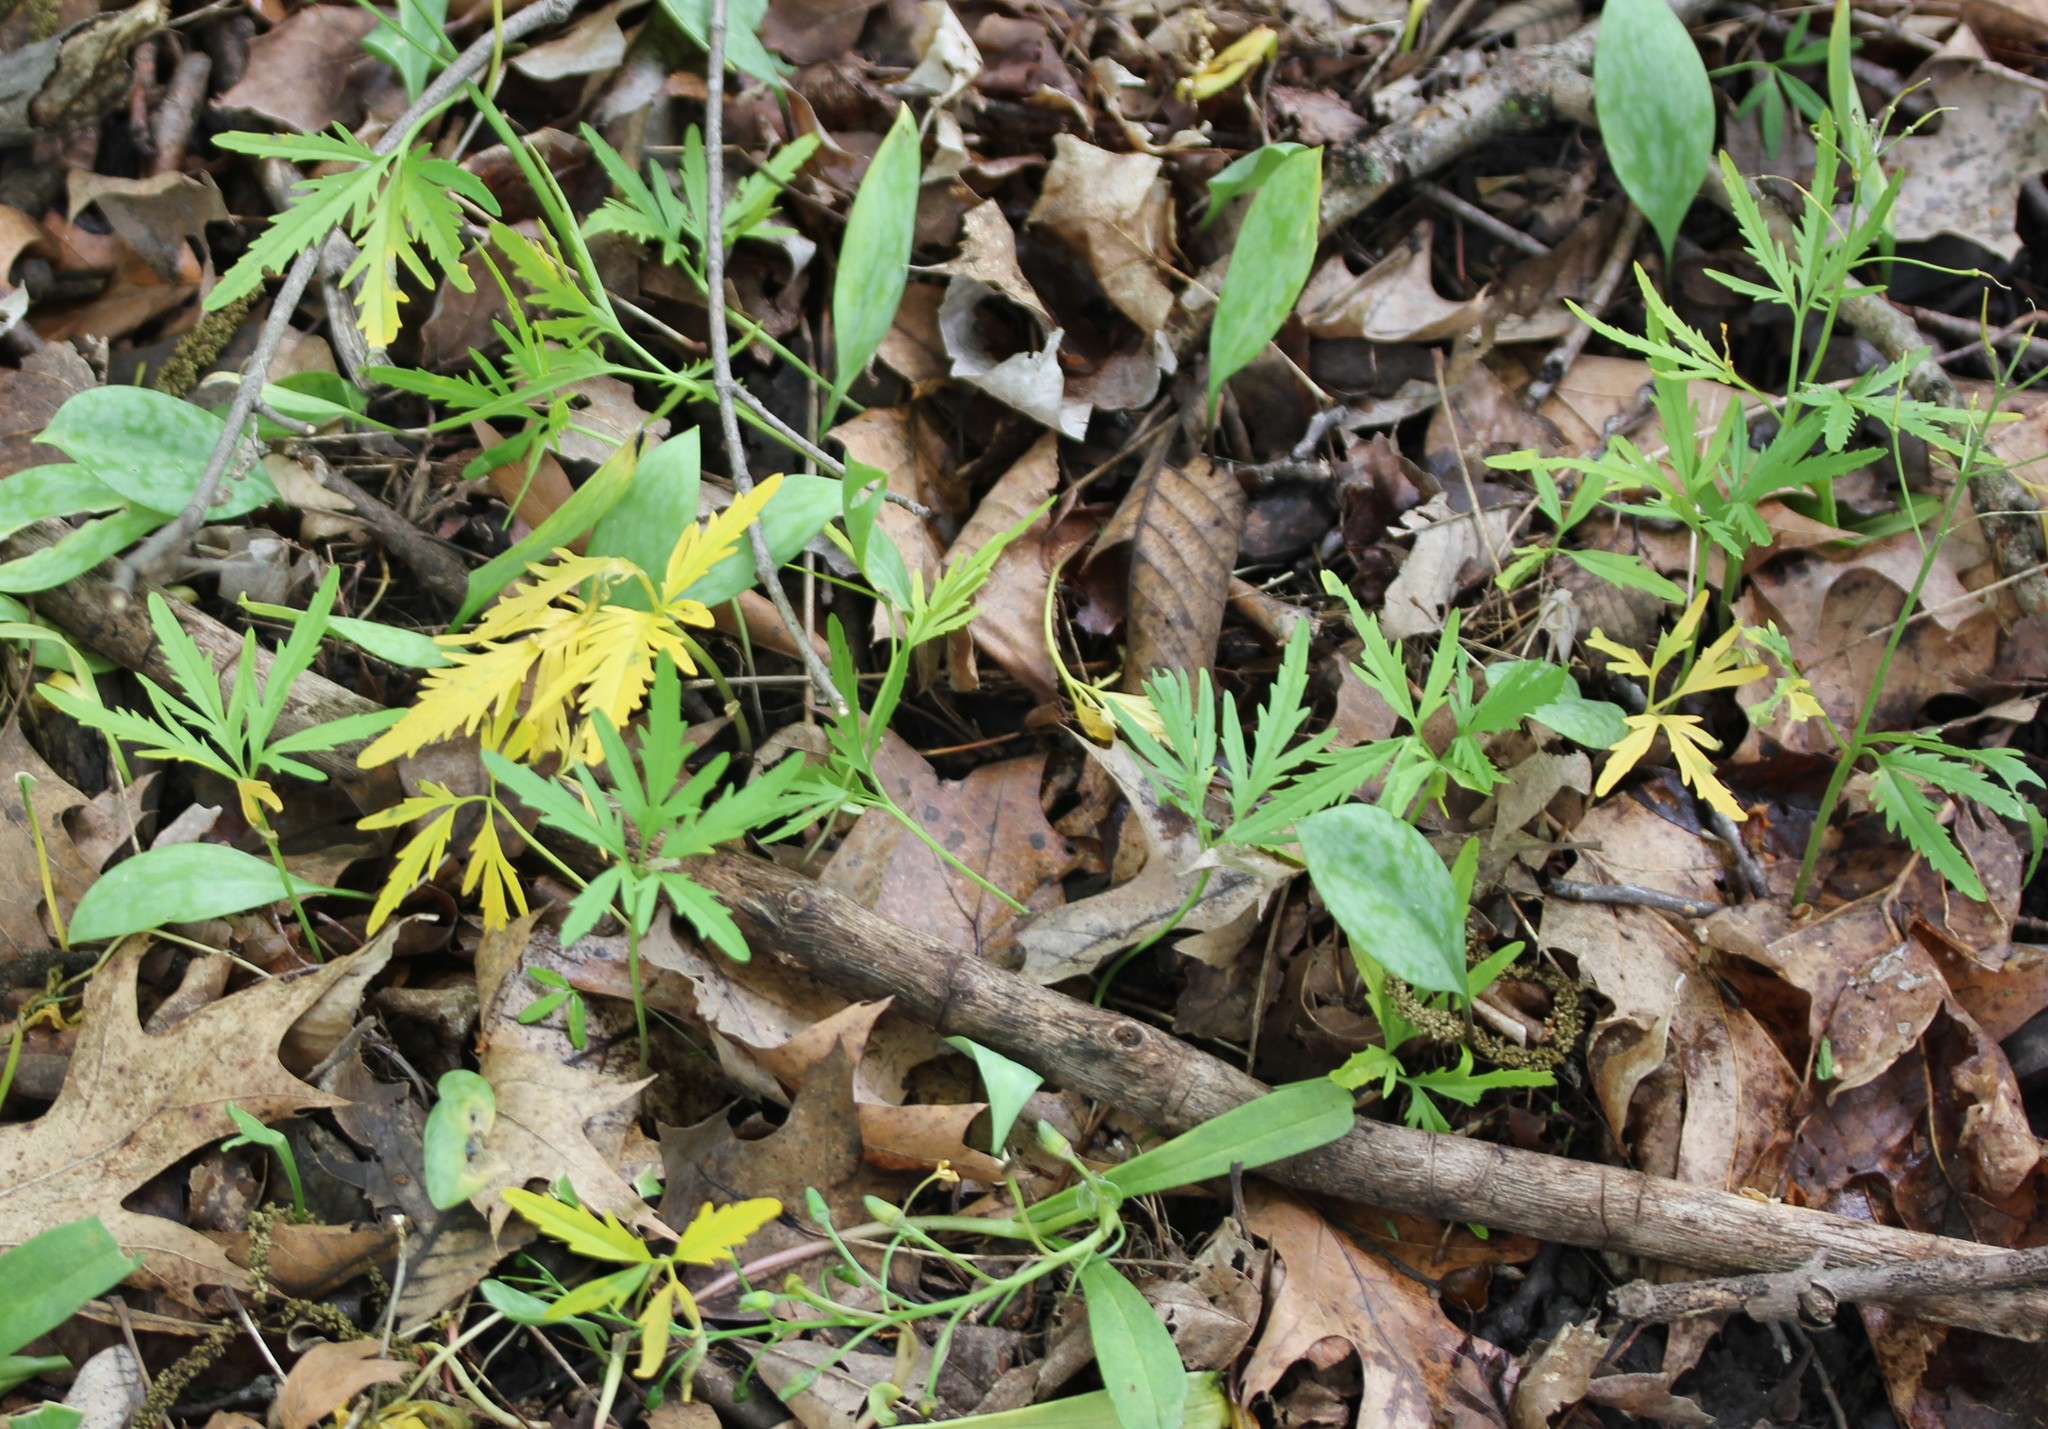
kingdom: Plantae
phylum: Tracheophyta
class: Magnoliopsida
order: Brassicales
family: Brassicaceae
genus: Cardamine
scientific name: Cardamine concatenata
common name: Cut-leaf toothcup
